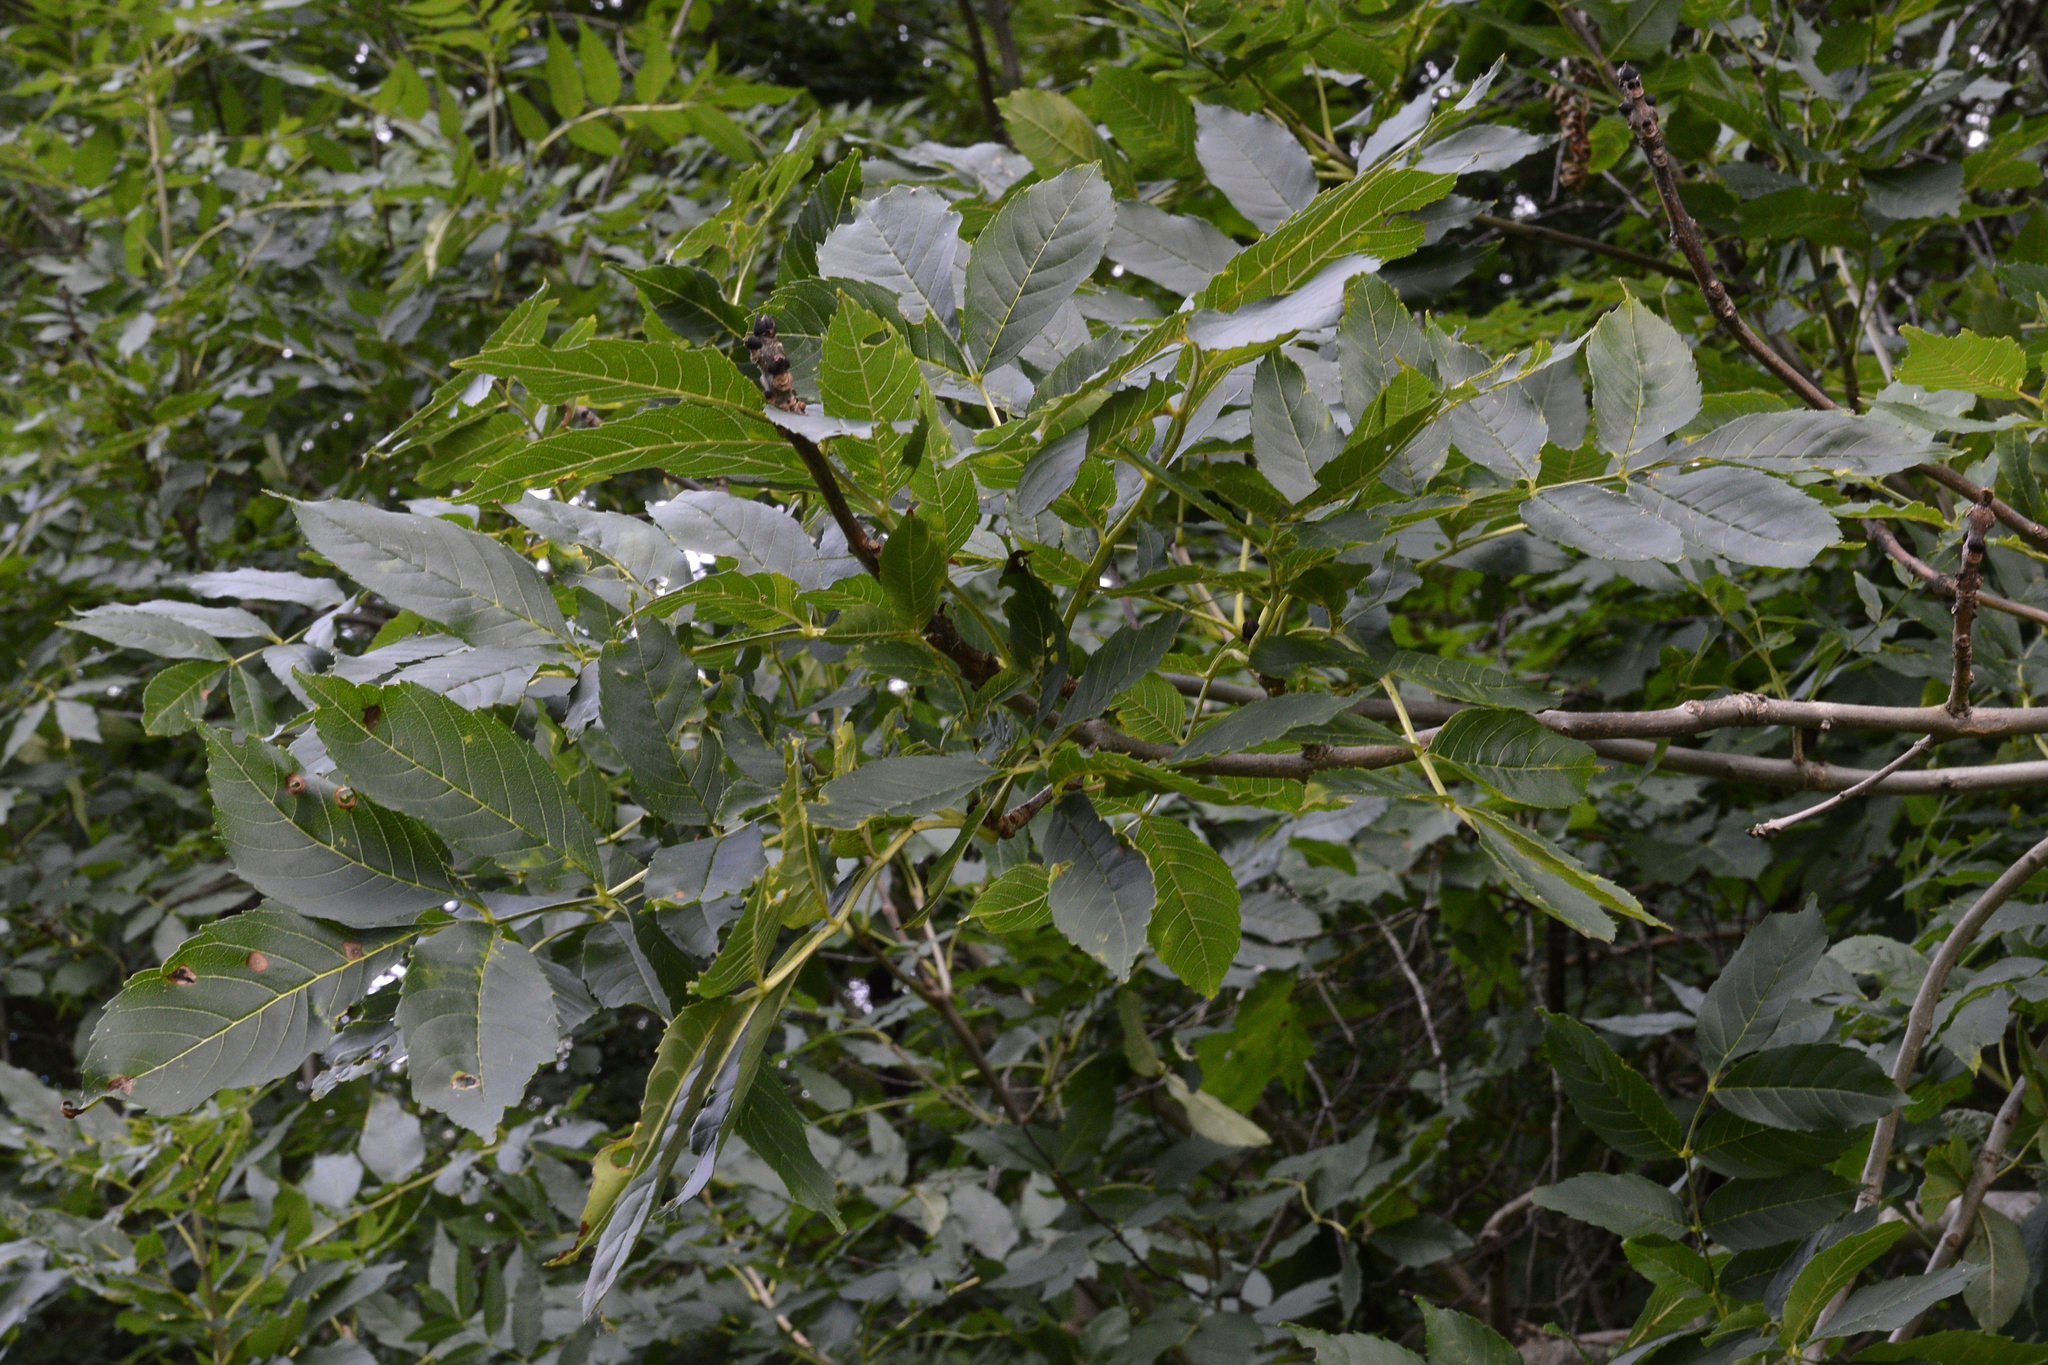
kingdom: Plantae
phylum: Tracheophyta
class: Magnoliopsida
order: Lamiales
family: Oleaceae
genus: Fraxinus
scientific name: Fraxinus excelsior
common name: European ash
